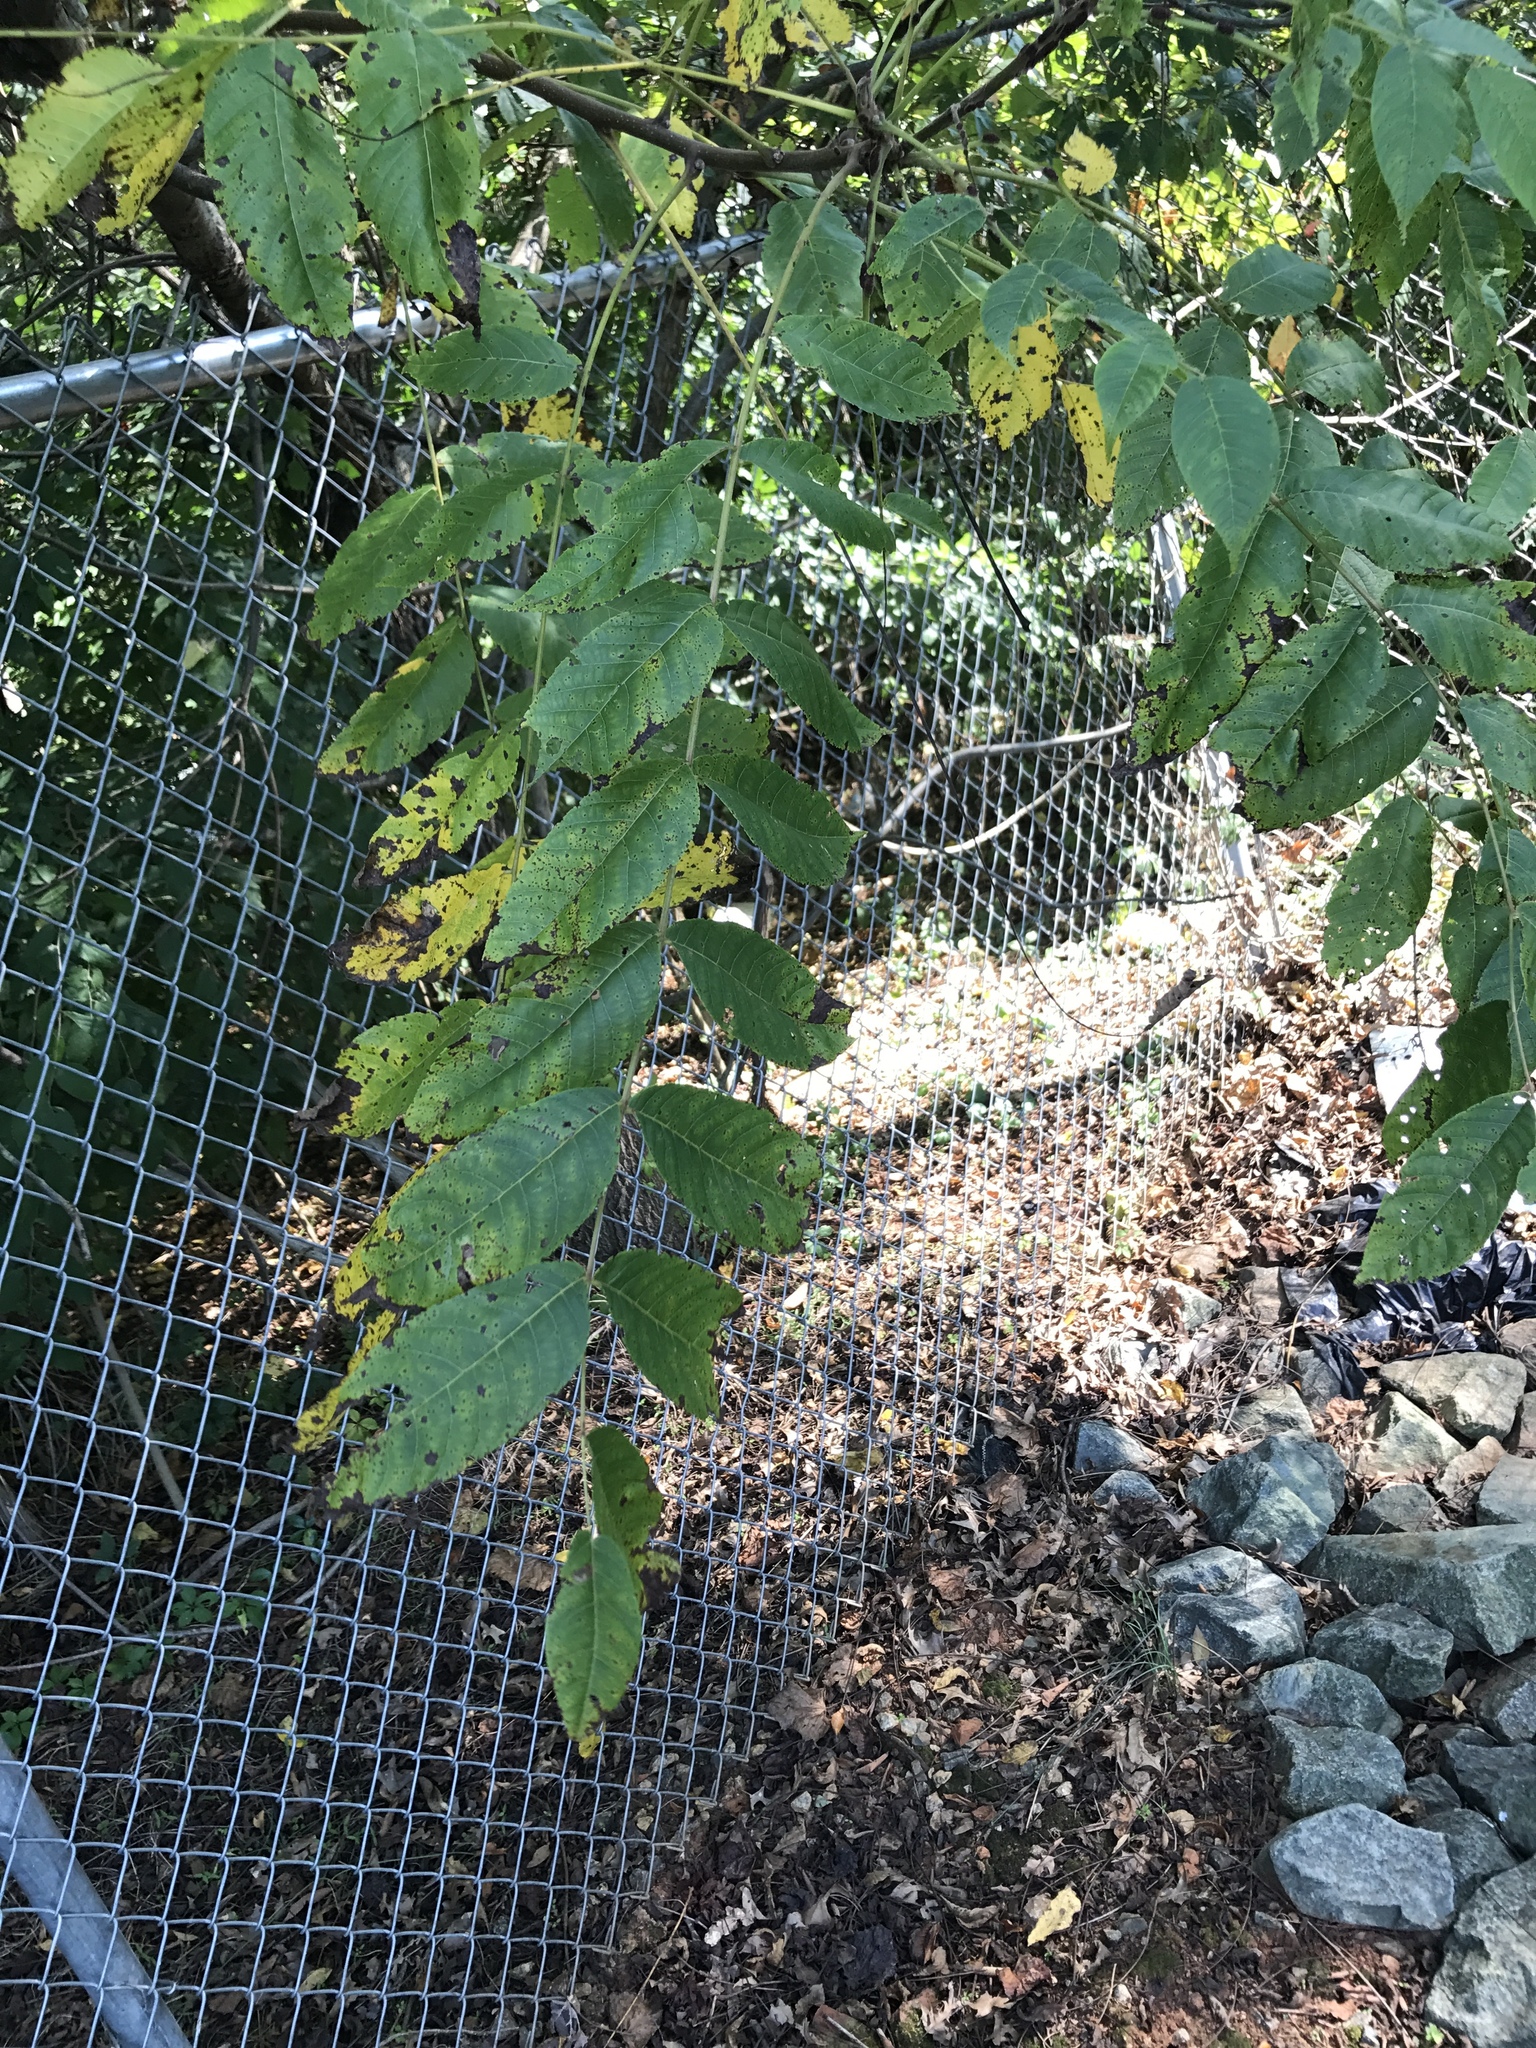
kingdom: Plantae
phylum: Tracheophyta
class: Magnoliopsida
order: Fagales
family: Juglandaceae
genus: Juglans
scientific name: Juglans nigra
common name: Black walnut
